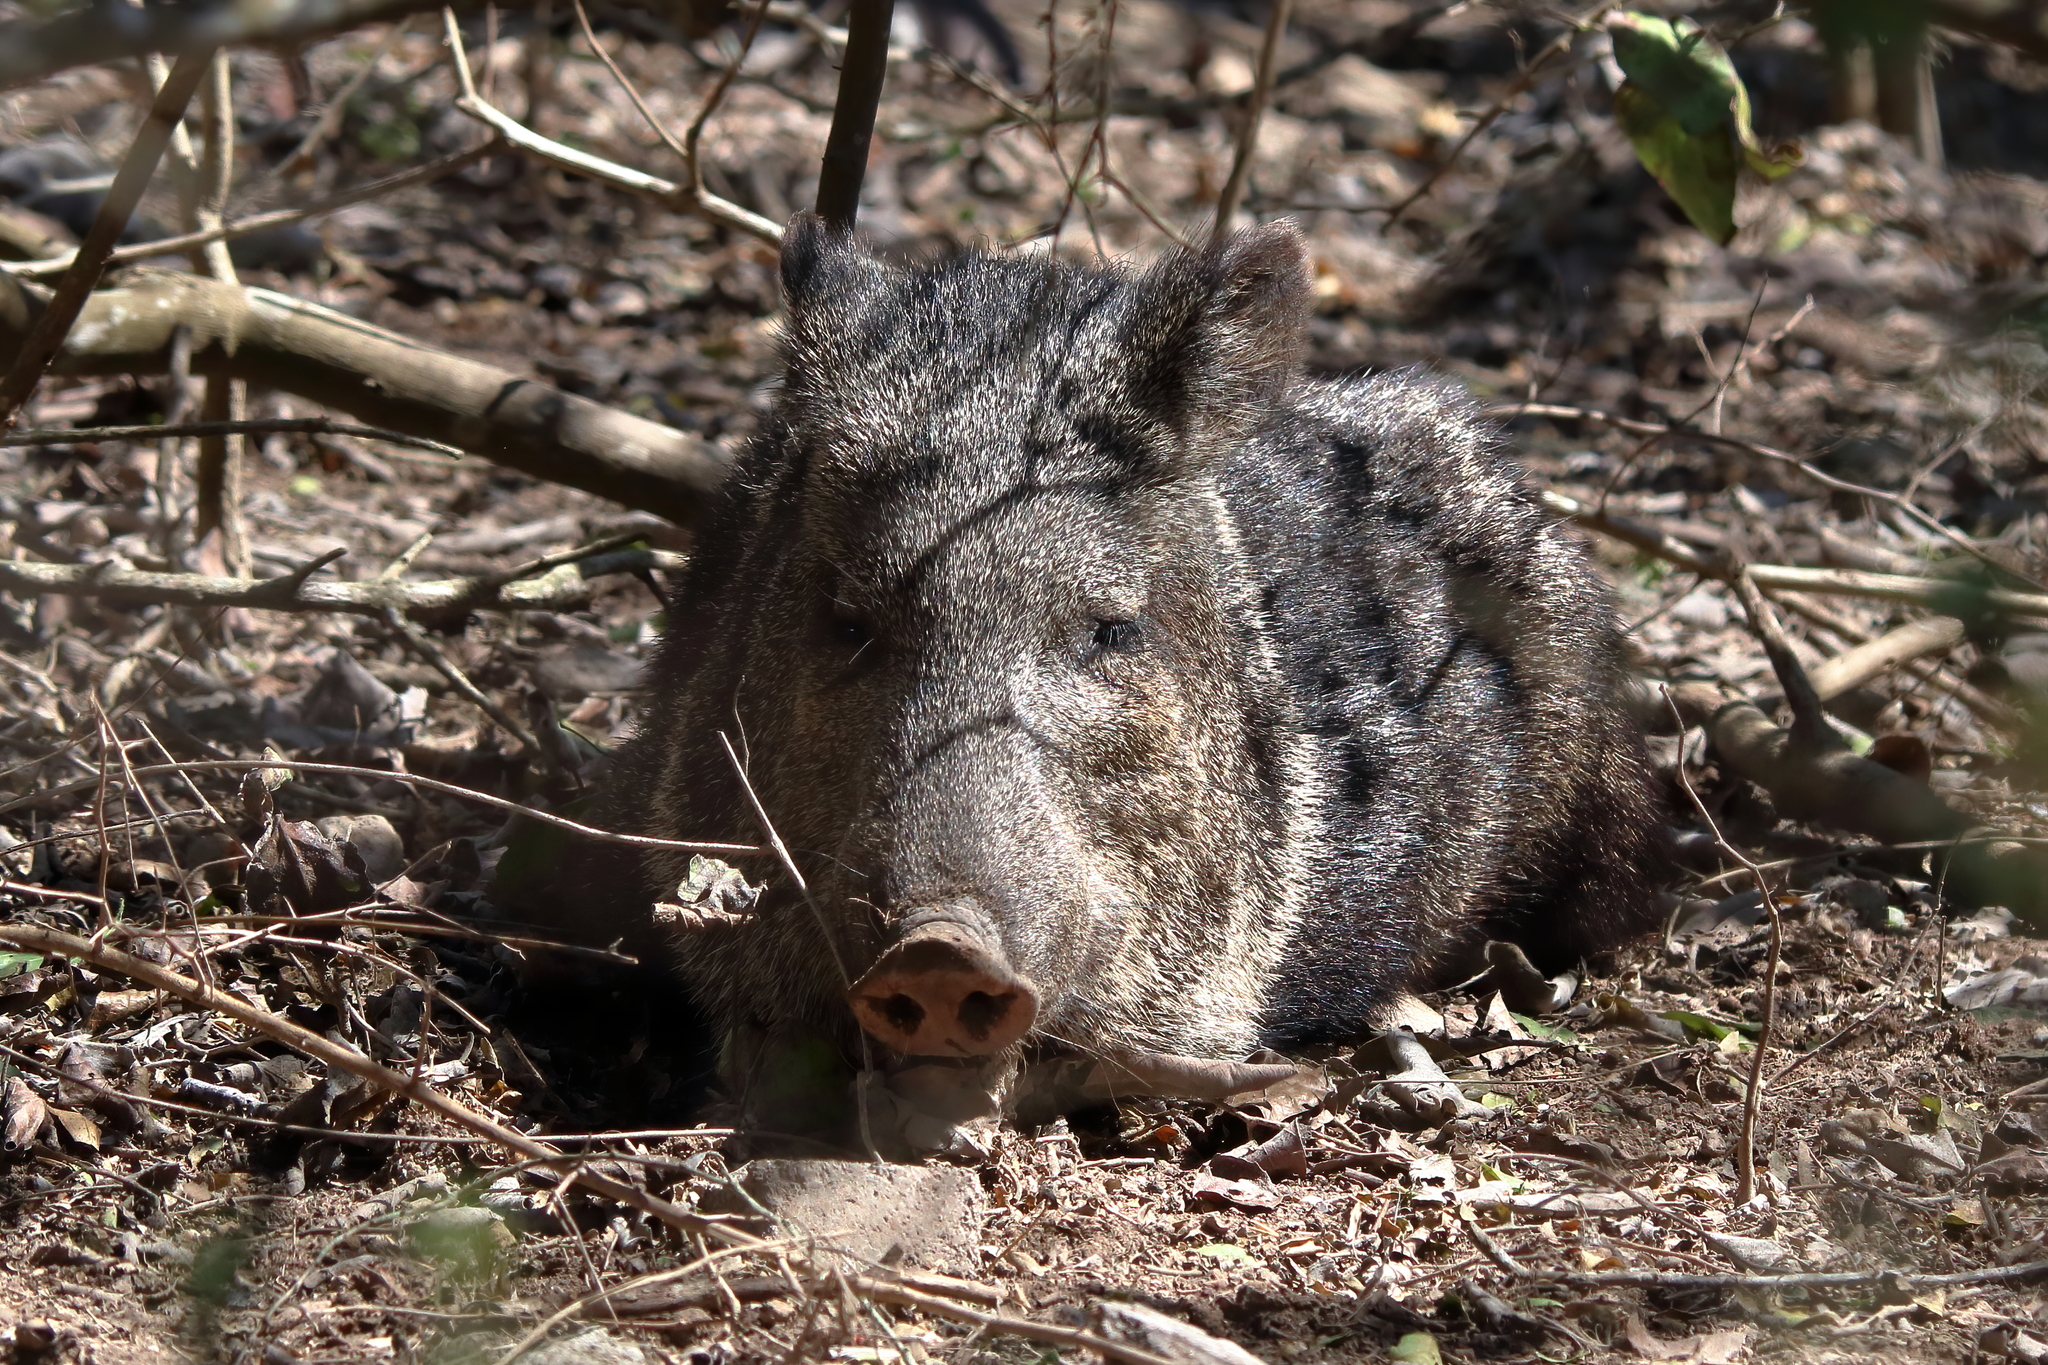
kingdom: Animalia
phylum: Chordata
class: Mammalia
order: Artiodactyla
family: Tayassuidae
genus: Pecari
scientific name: Pecari tajacu
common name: Collared peccary
